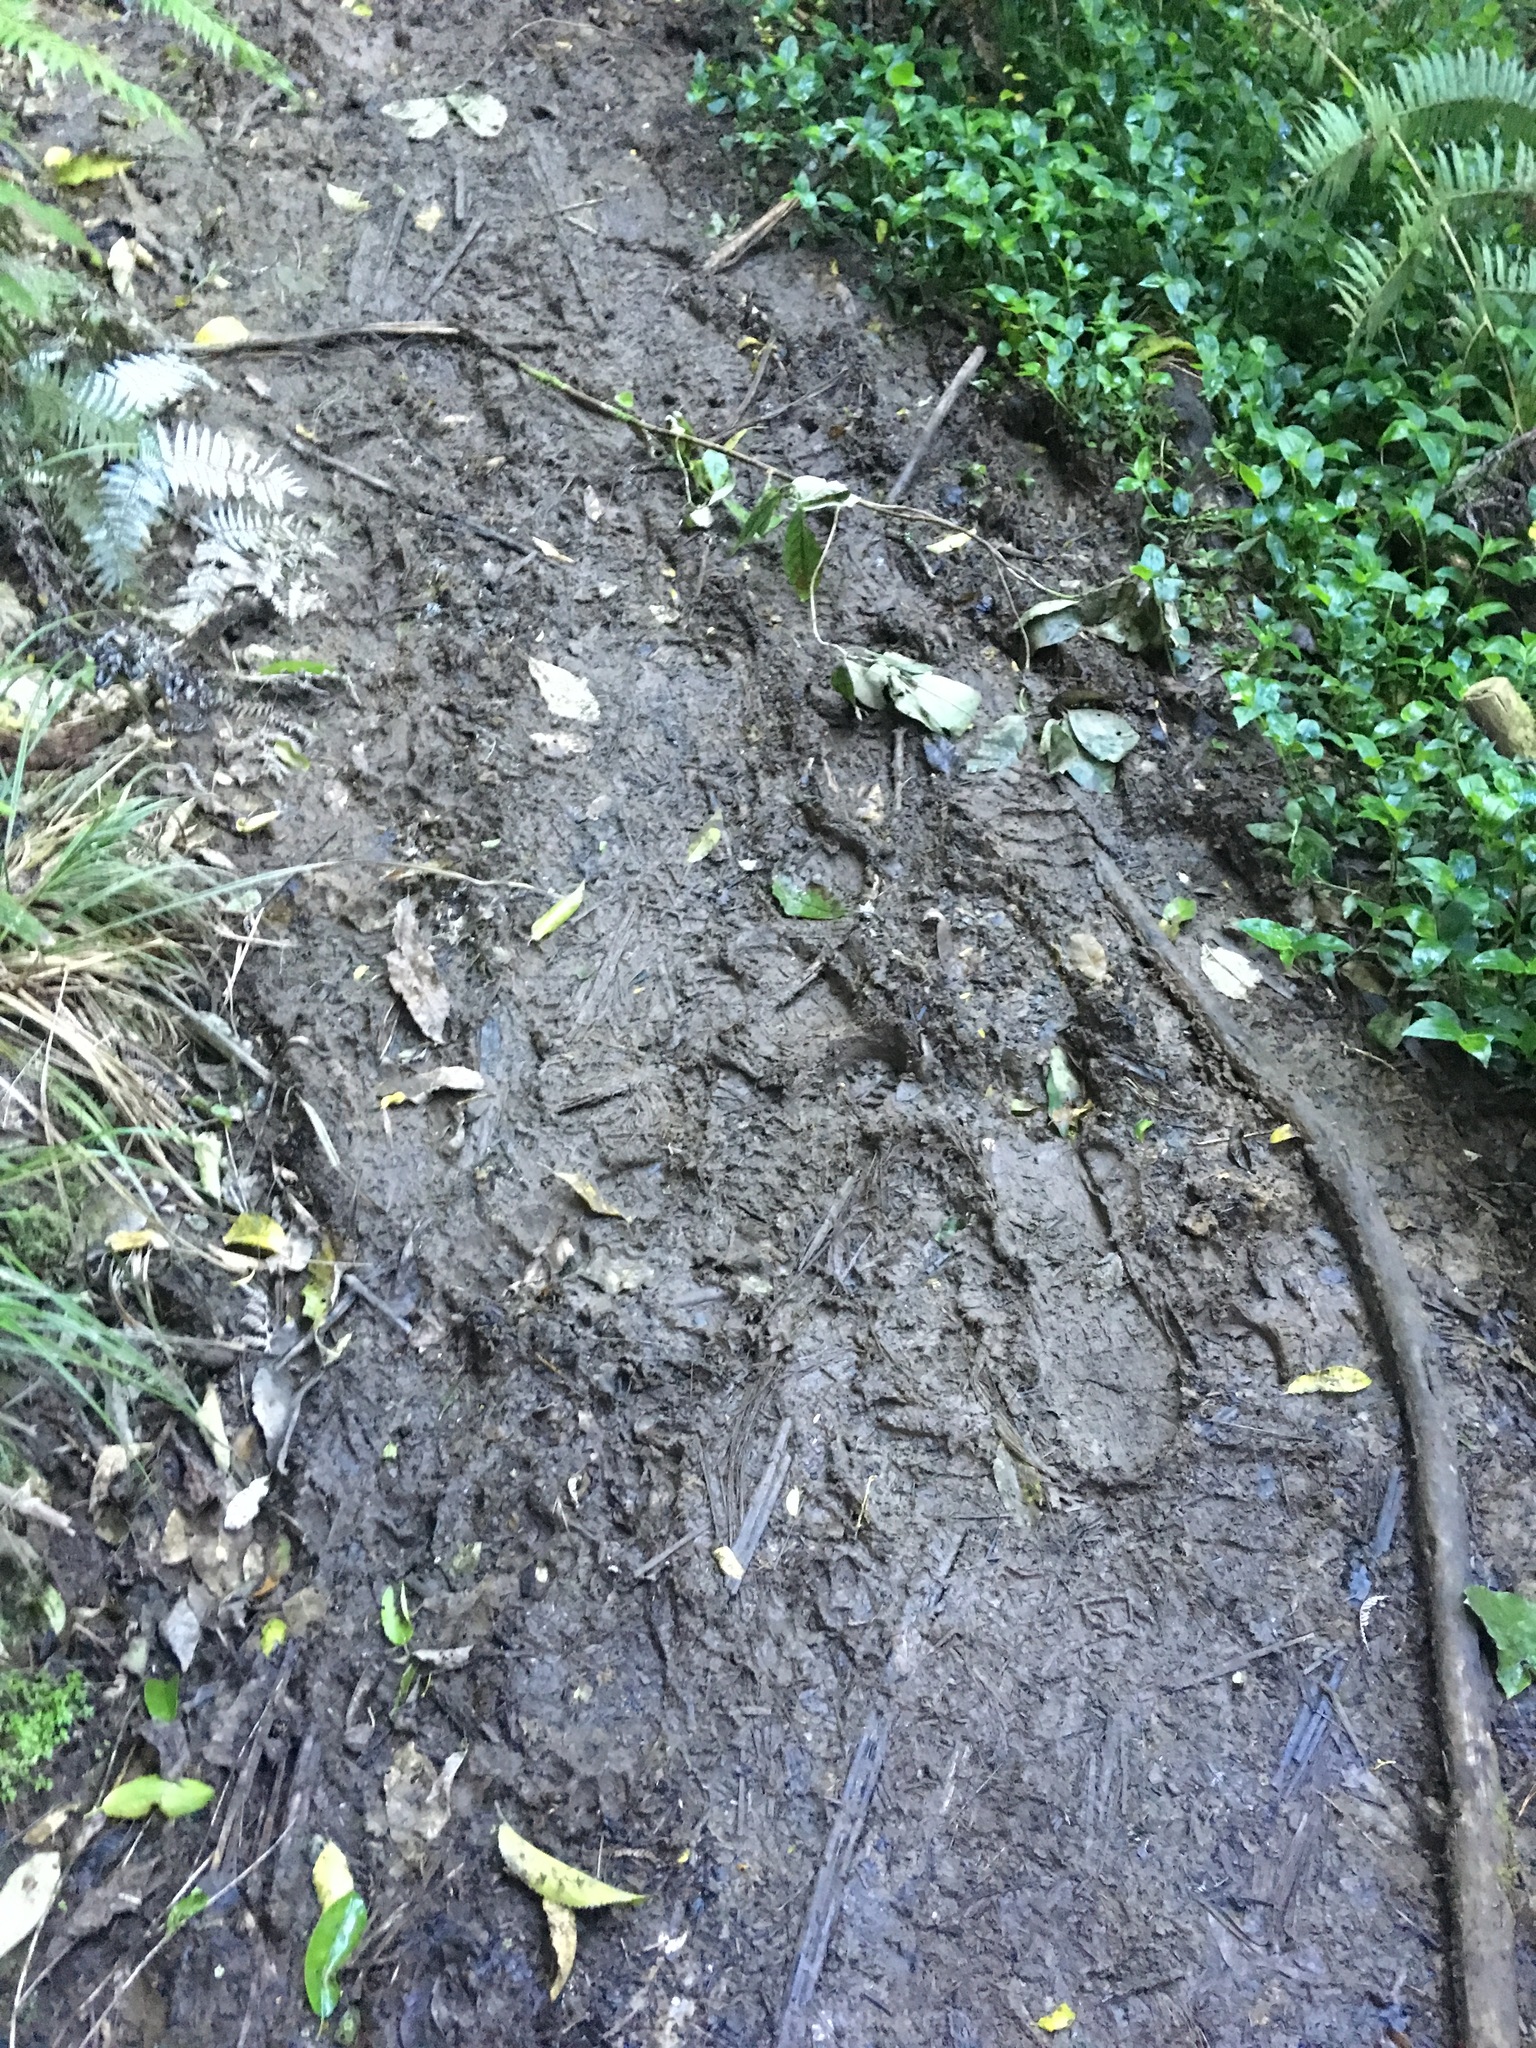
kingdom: Plantae
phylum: Tracheophyta
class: Liliopsida
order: Commelinales
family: Commelinaceae
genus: Tradescantia
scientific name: Tradescantia fluminensis
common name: Wandering-jew
